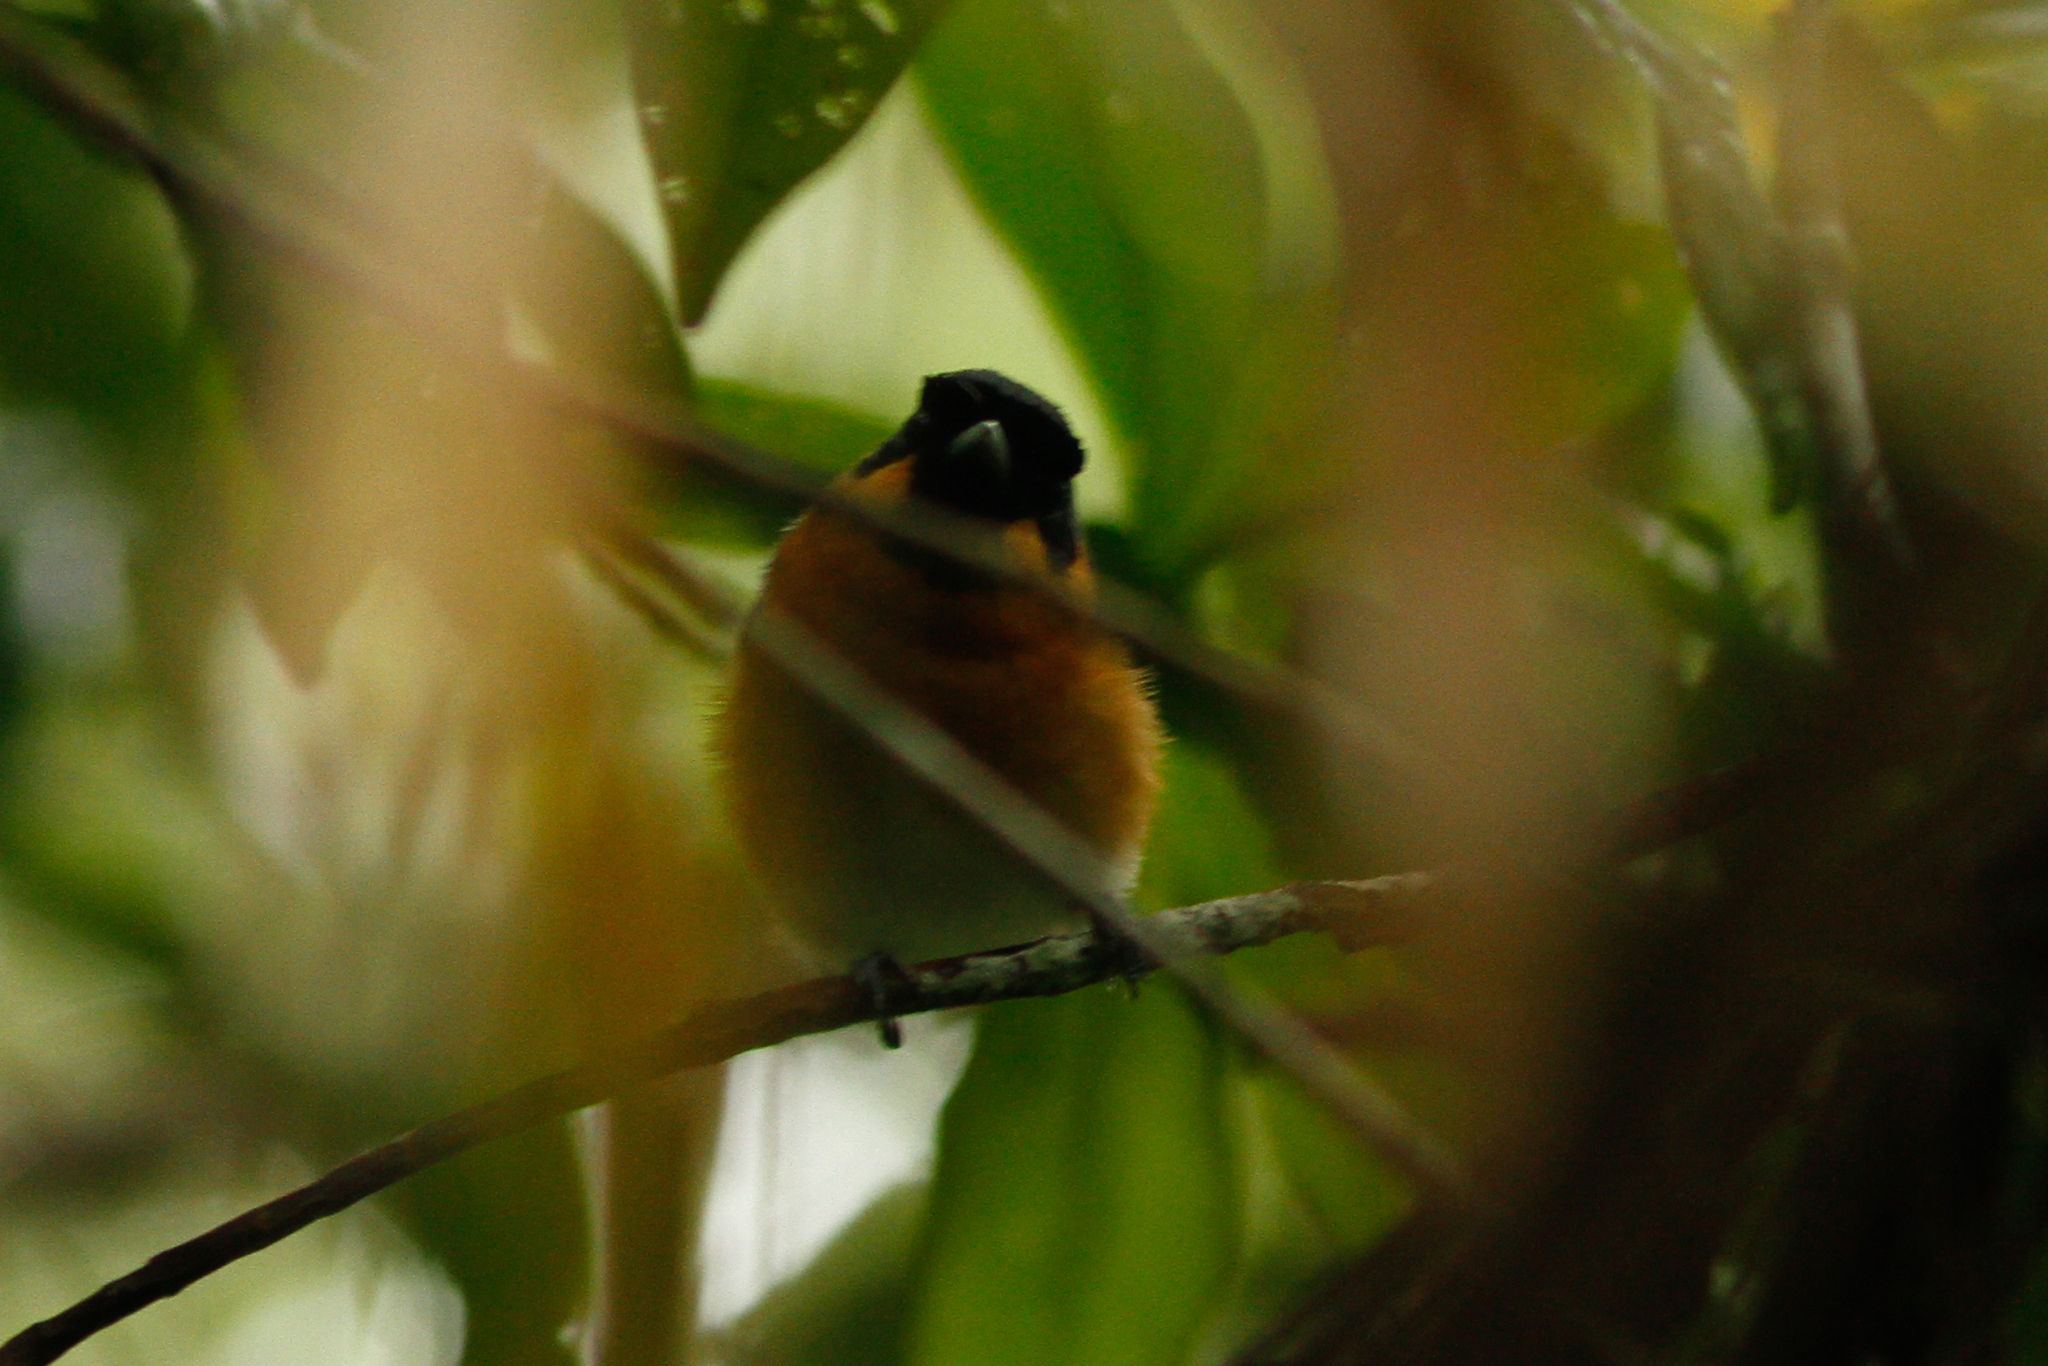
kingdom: Animalia
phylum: Chordata
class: Aves
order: Passeriformes
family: Monarchidae
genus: Symposiachrus
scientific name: Symposiachrus trivirgatus
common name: Spectacled monarch
